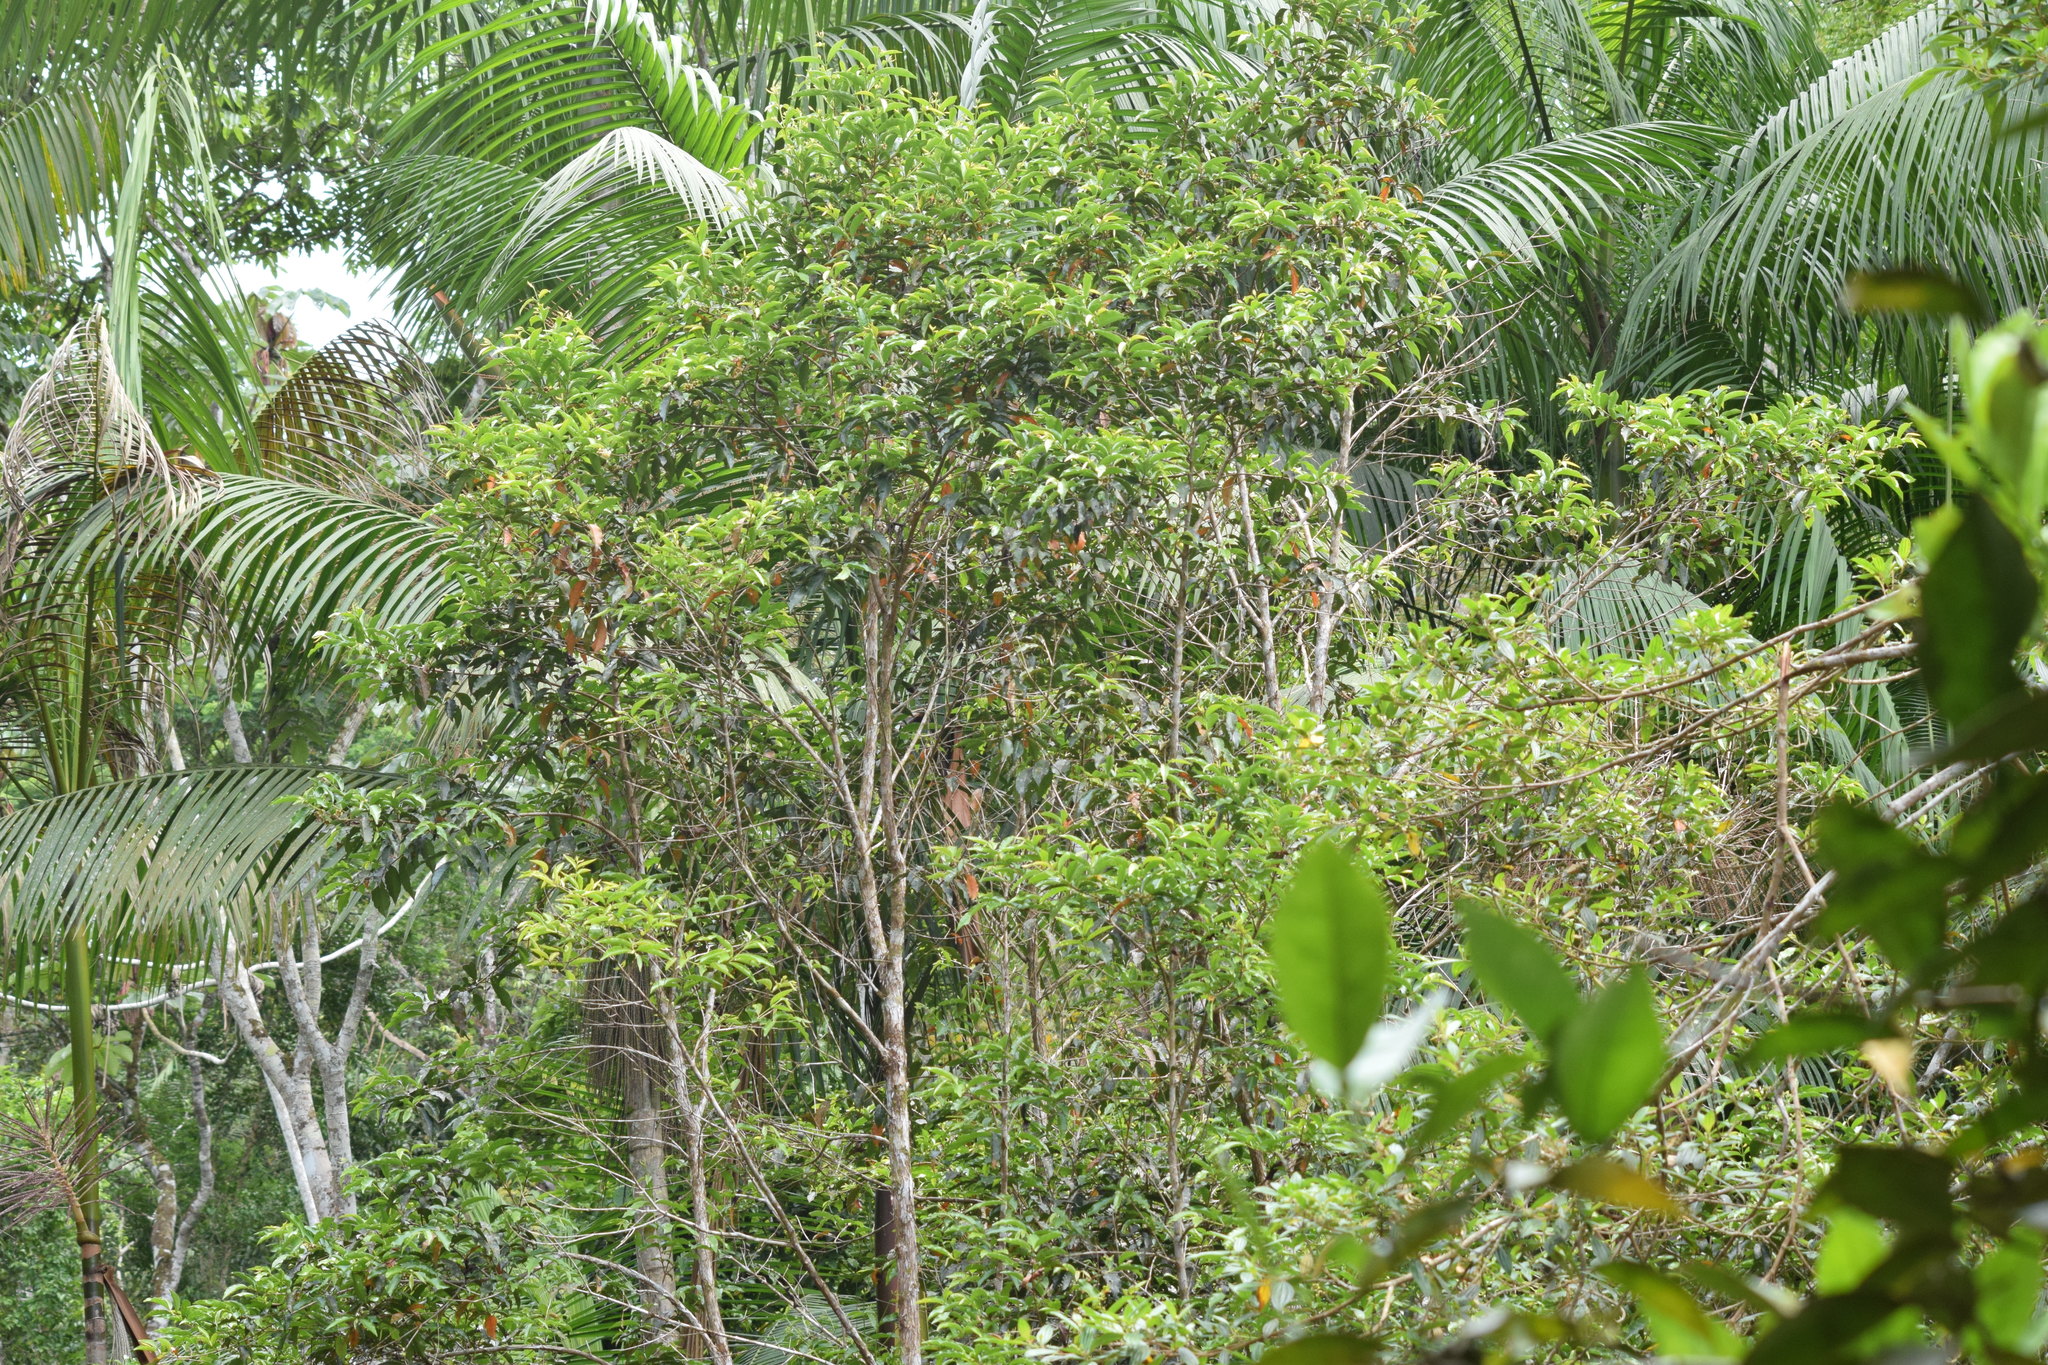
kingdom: Plantae
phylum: Tracheophyta
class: Magnoliopsida
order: Myrtales
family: Myrtaceae
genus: Campomanesia
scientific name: Campomanesia phaea
